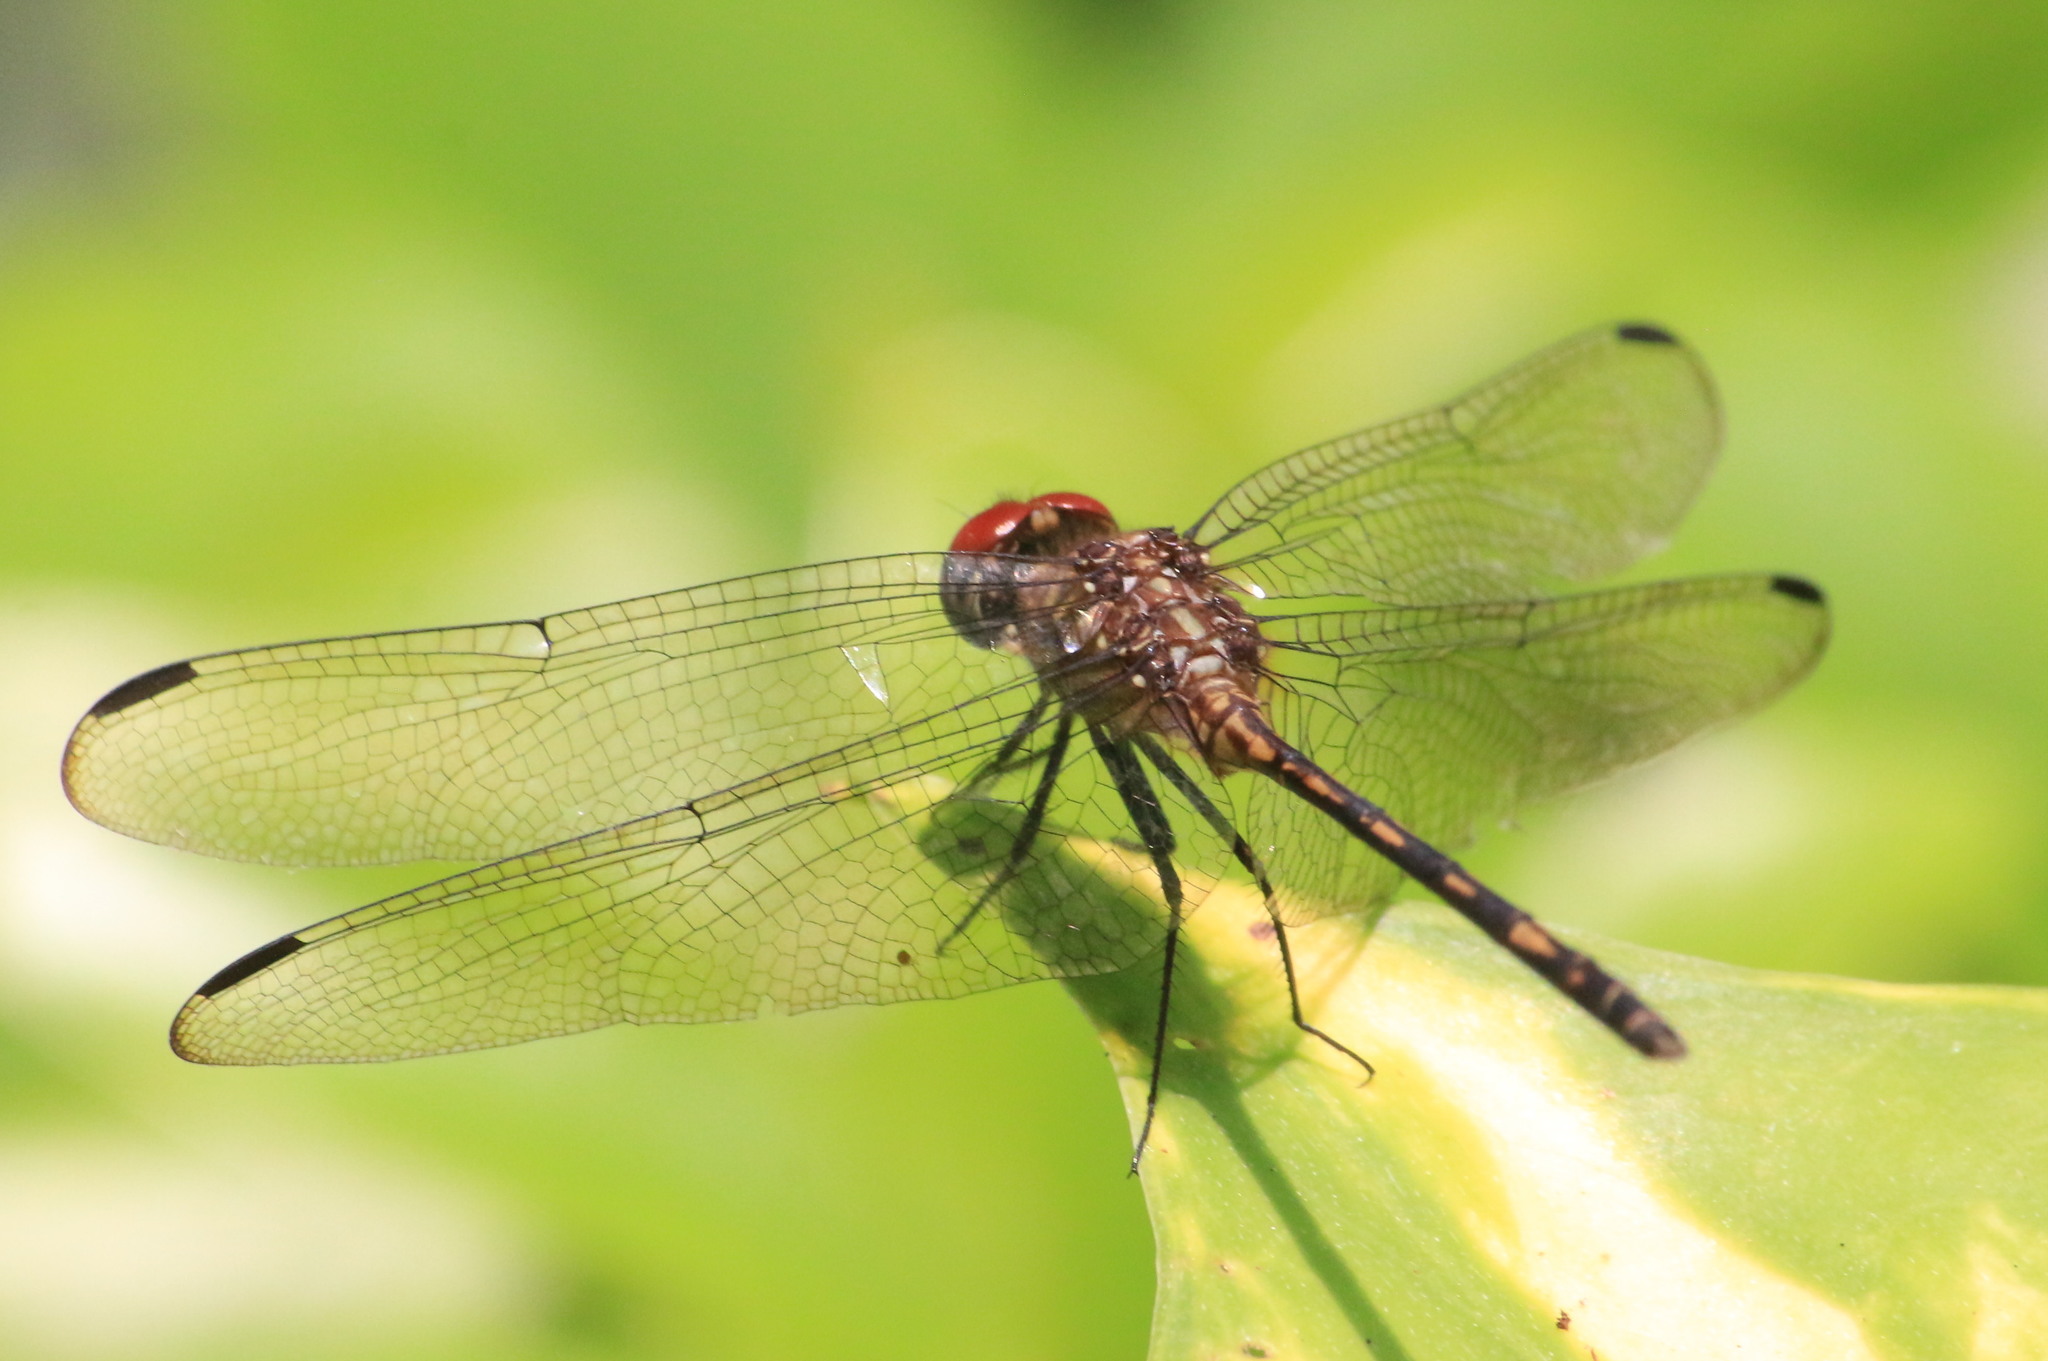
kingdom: Animalia
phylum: Arthropoda
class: Insecta
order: Odonata
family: Libellulidae
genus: Dythemis
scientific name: Dythemis sterilis
